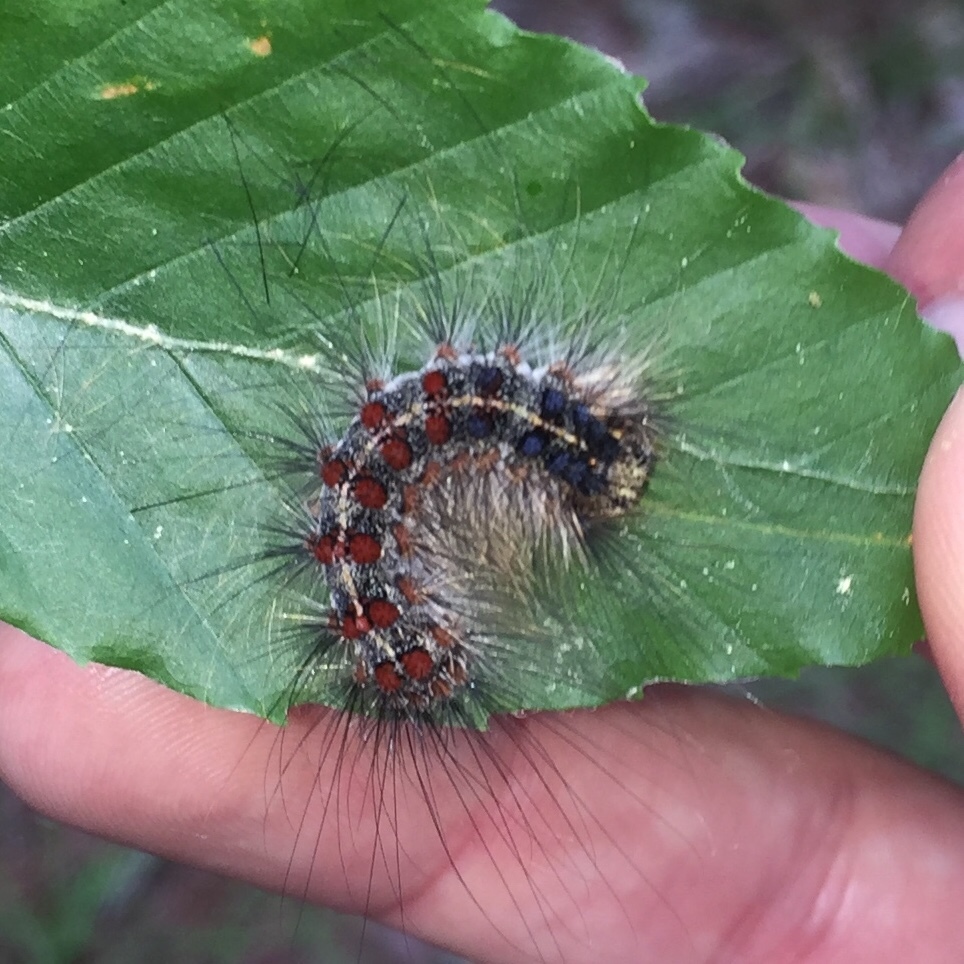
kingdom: Animalia
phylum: Arthropoda
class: Insecta
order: Lepidoptera
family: Erebidae
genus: Lymantria
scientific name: Lymantria dispar
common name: Gypsy moth
